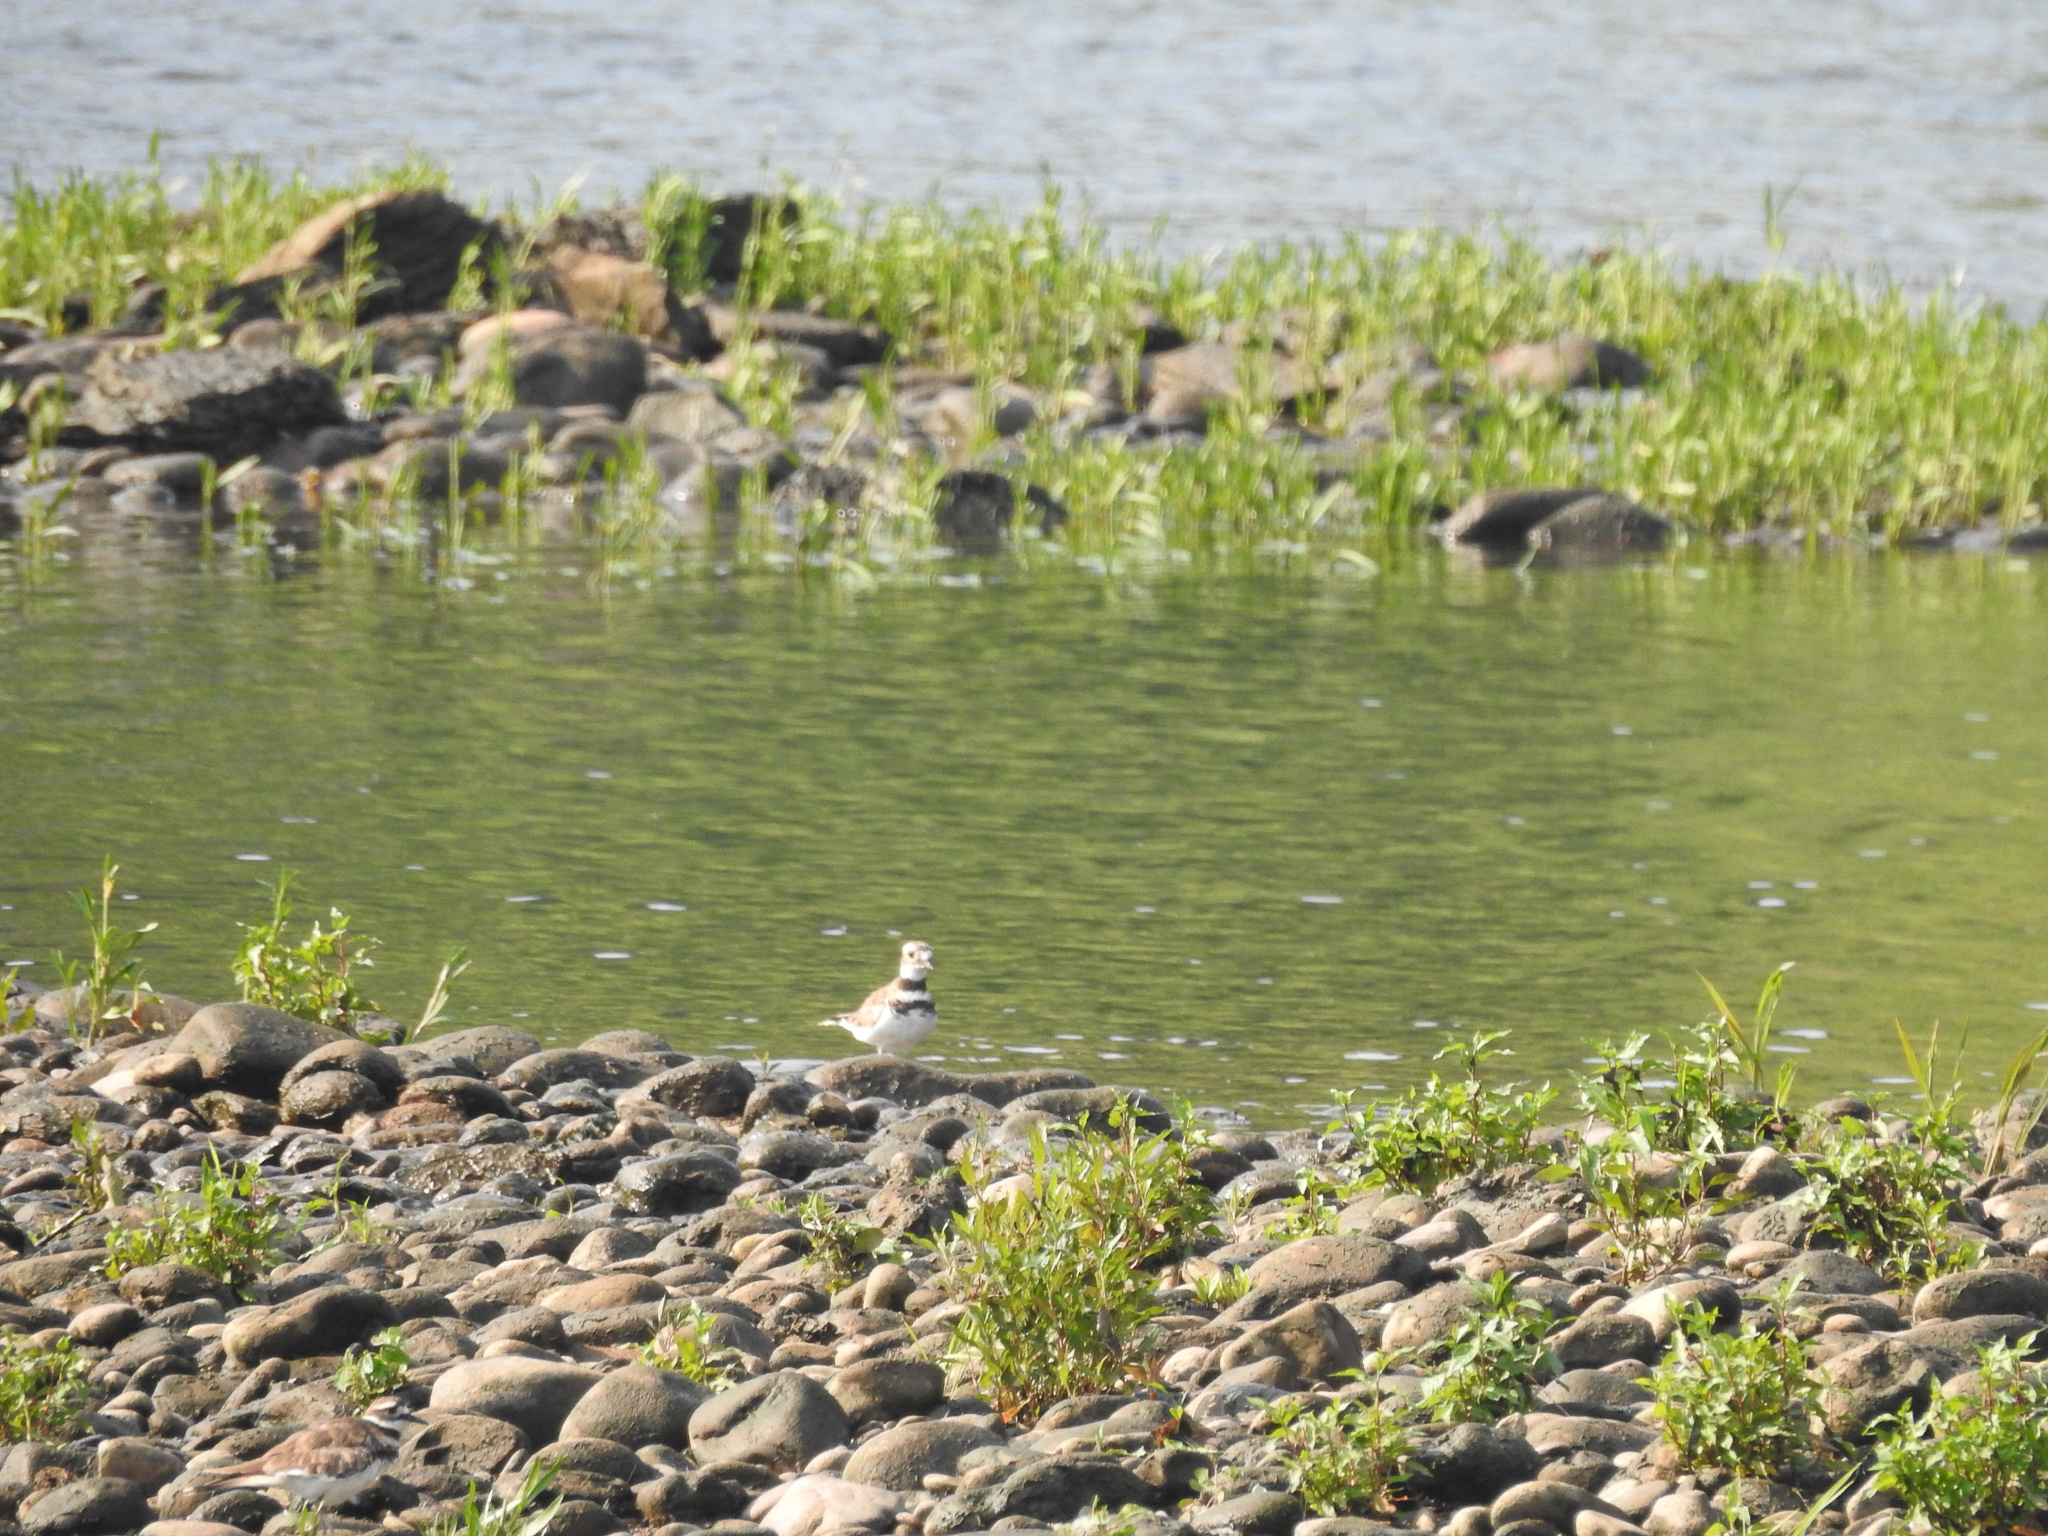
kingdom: Animalia
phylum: Chordata
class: Aves
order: Charadriiformes
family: Charadriidae
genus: Charadrius
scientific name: Charadrius vociferus
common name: Killdeer
